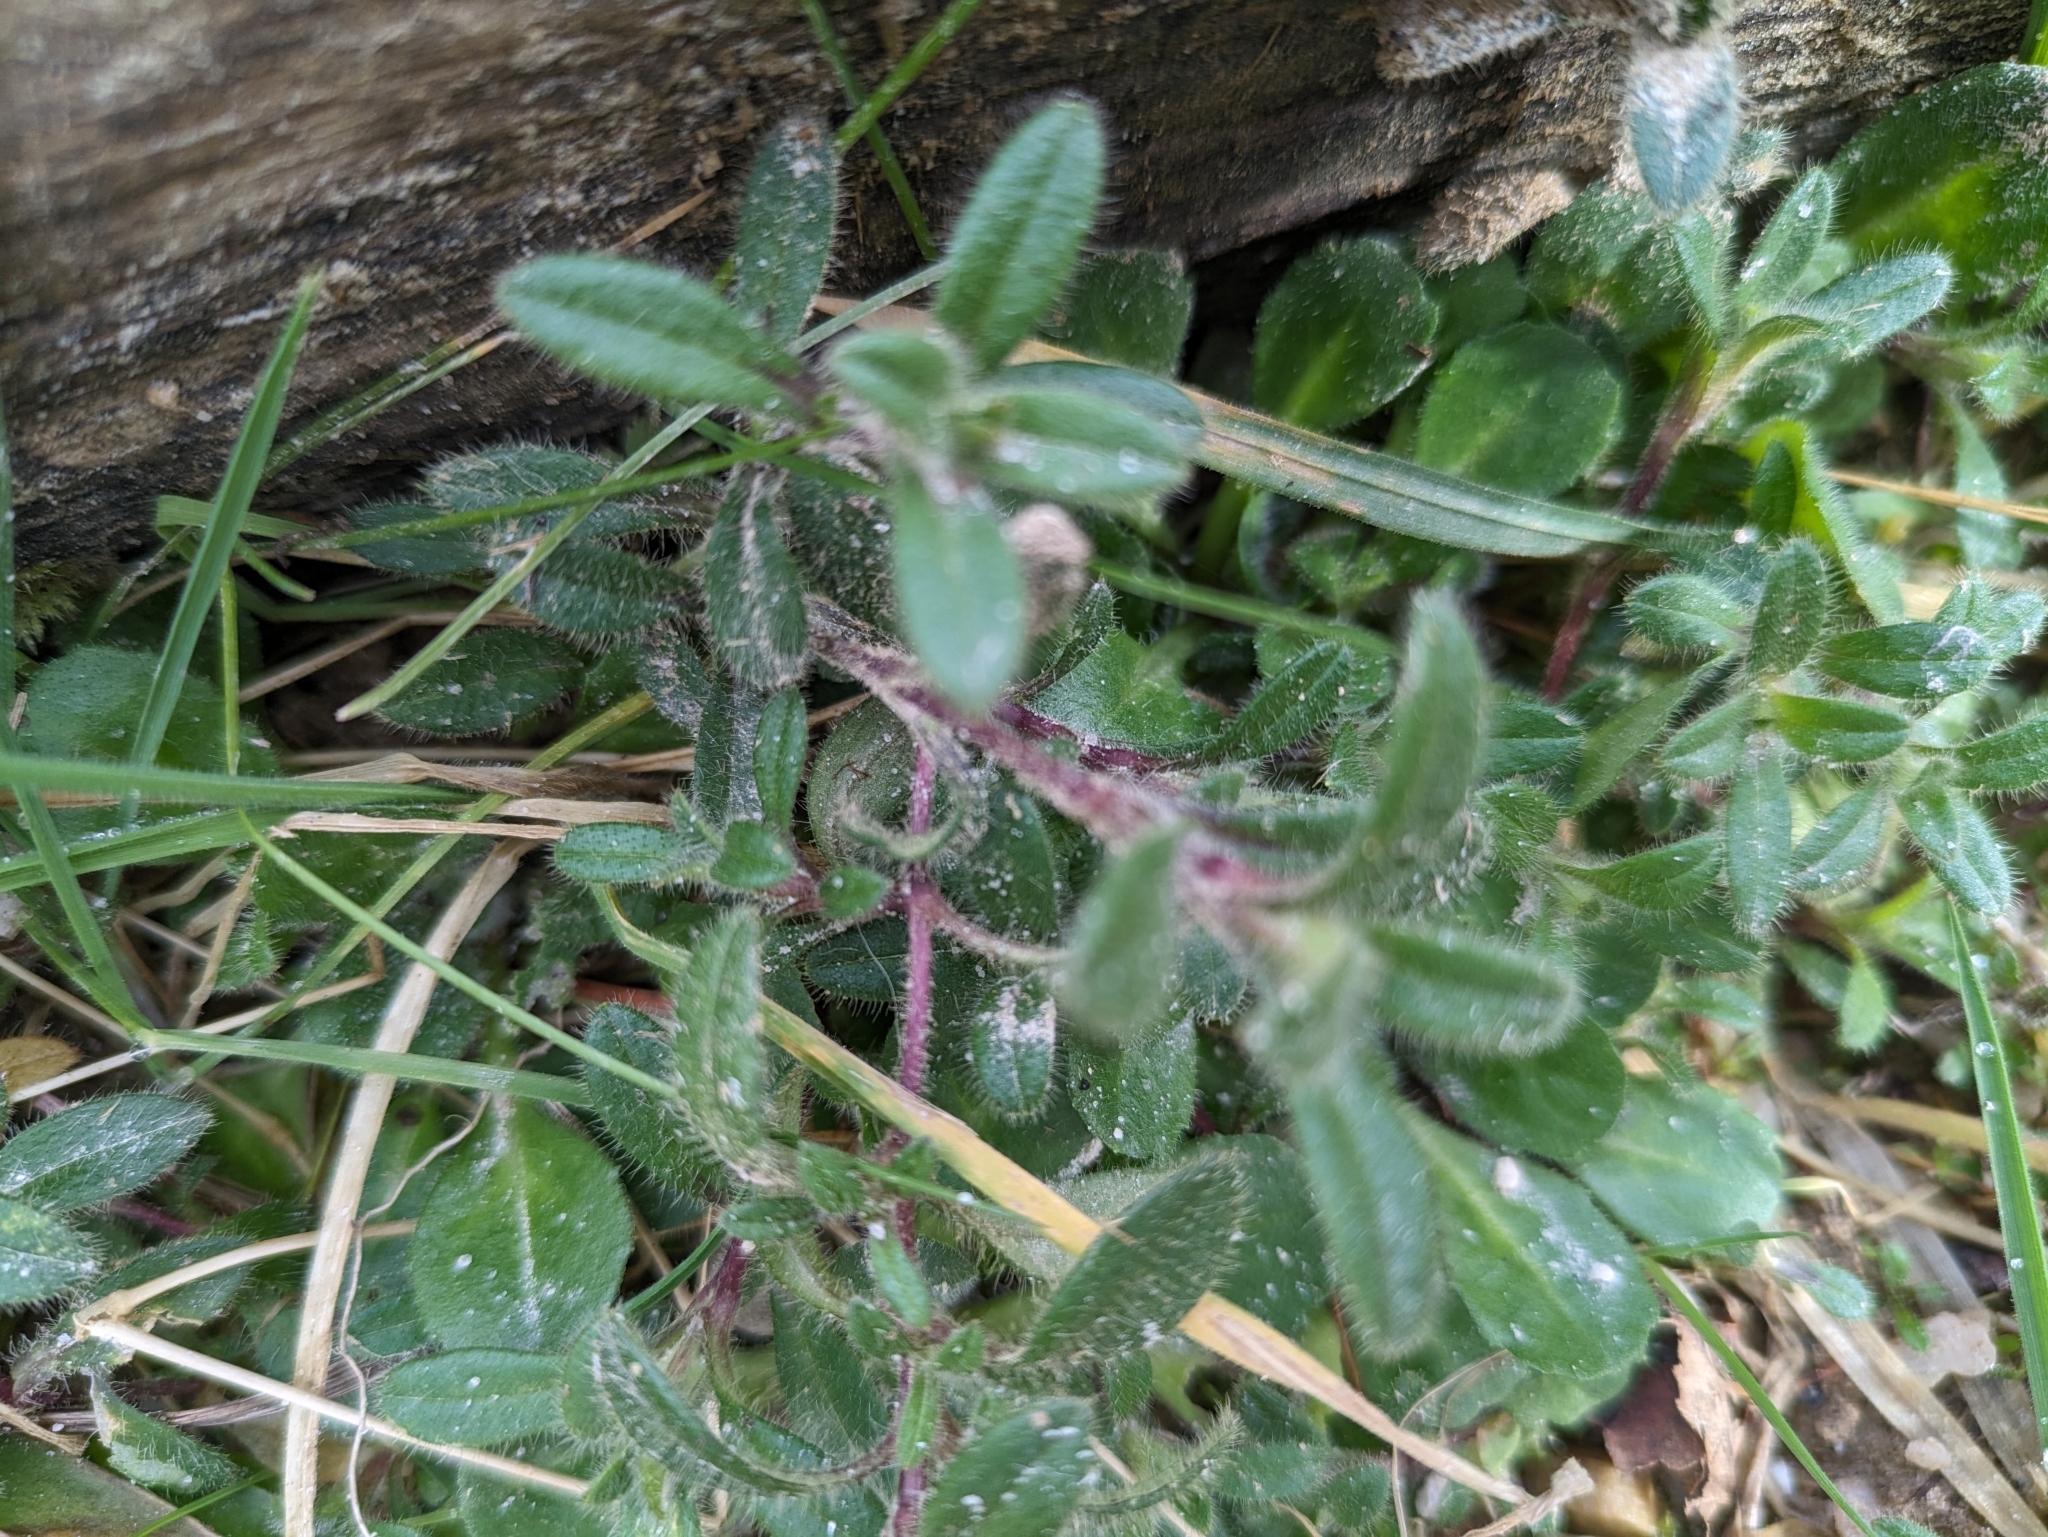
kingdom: Plantae
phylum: Tracheophyta
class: Magnoliopsida
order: Caryophyllales
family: Caryophyllaceae
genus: Cerastium
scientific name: Cerastium fontanum
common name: Common mouse-ear
